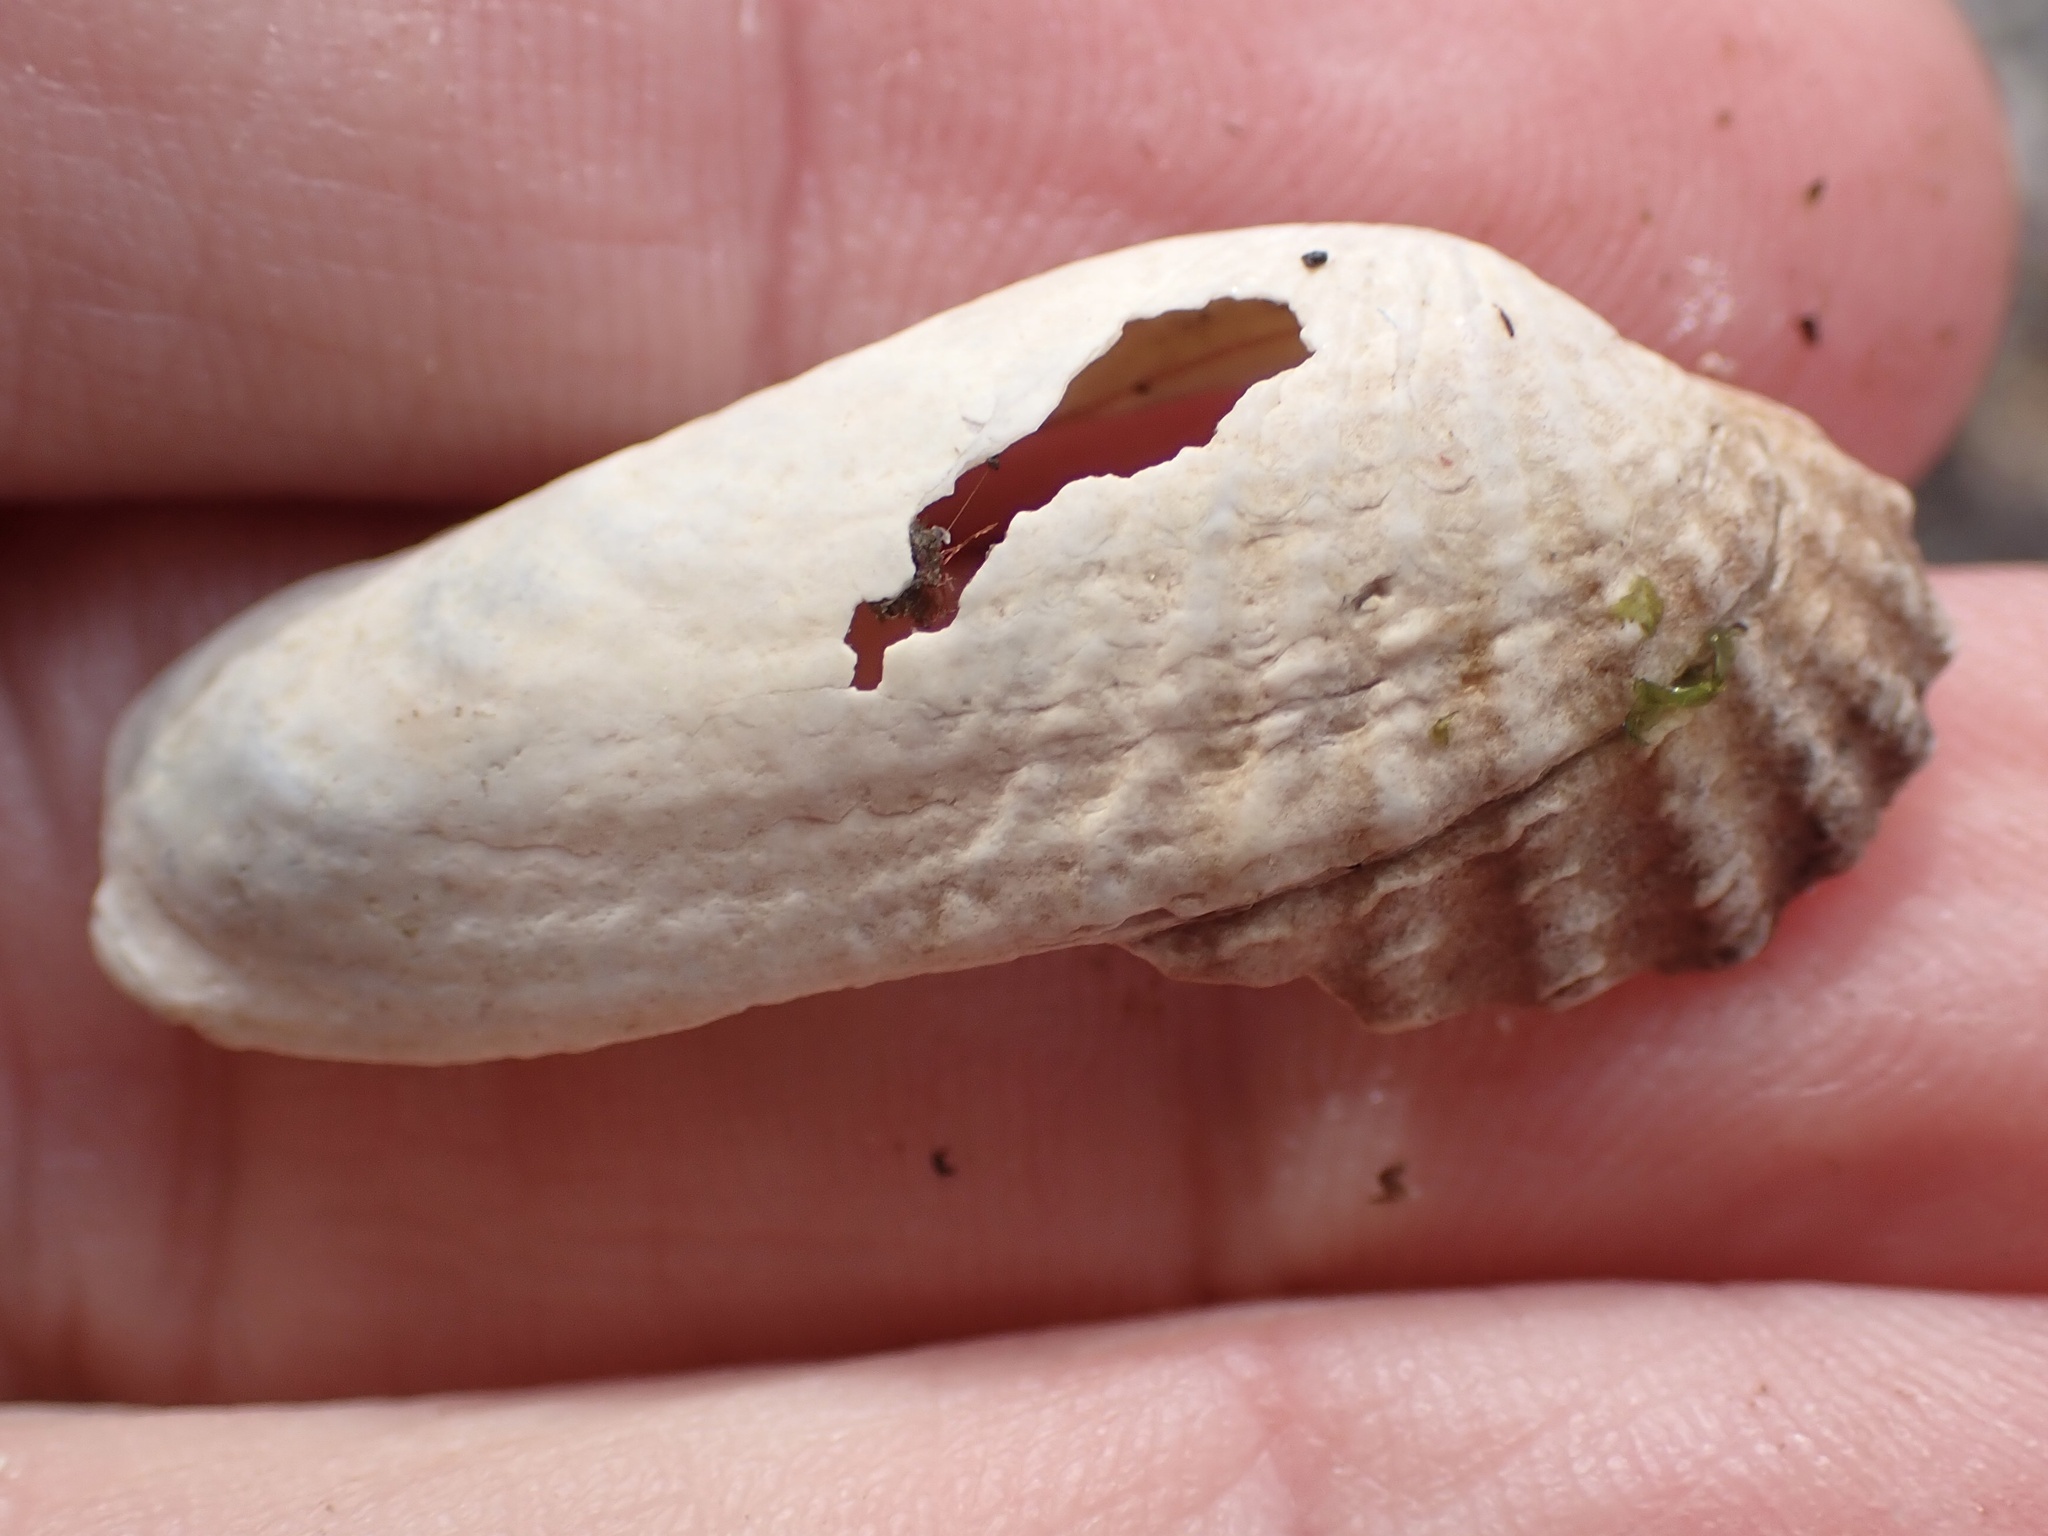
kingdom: Animalia
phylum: Mollusca
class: Bivalvia
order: Venerida
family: Veneridae
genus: Petricolaria
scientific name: Petricolaria pholadiformis
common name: American piddock
